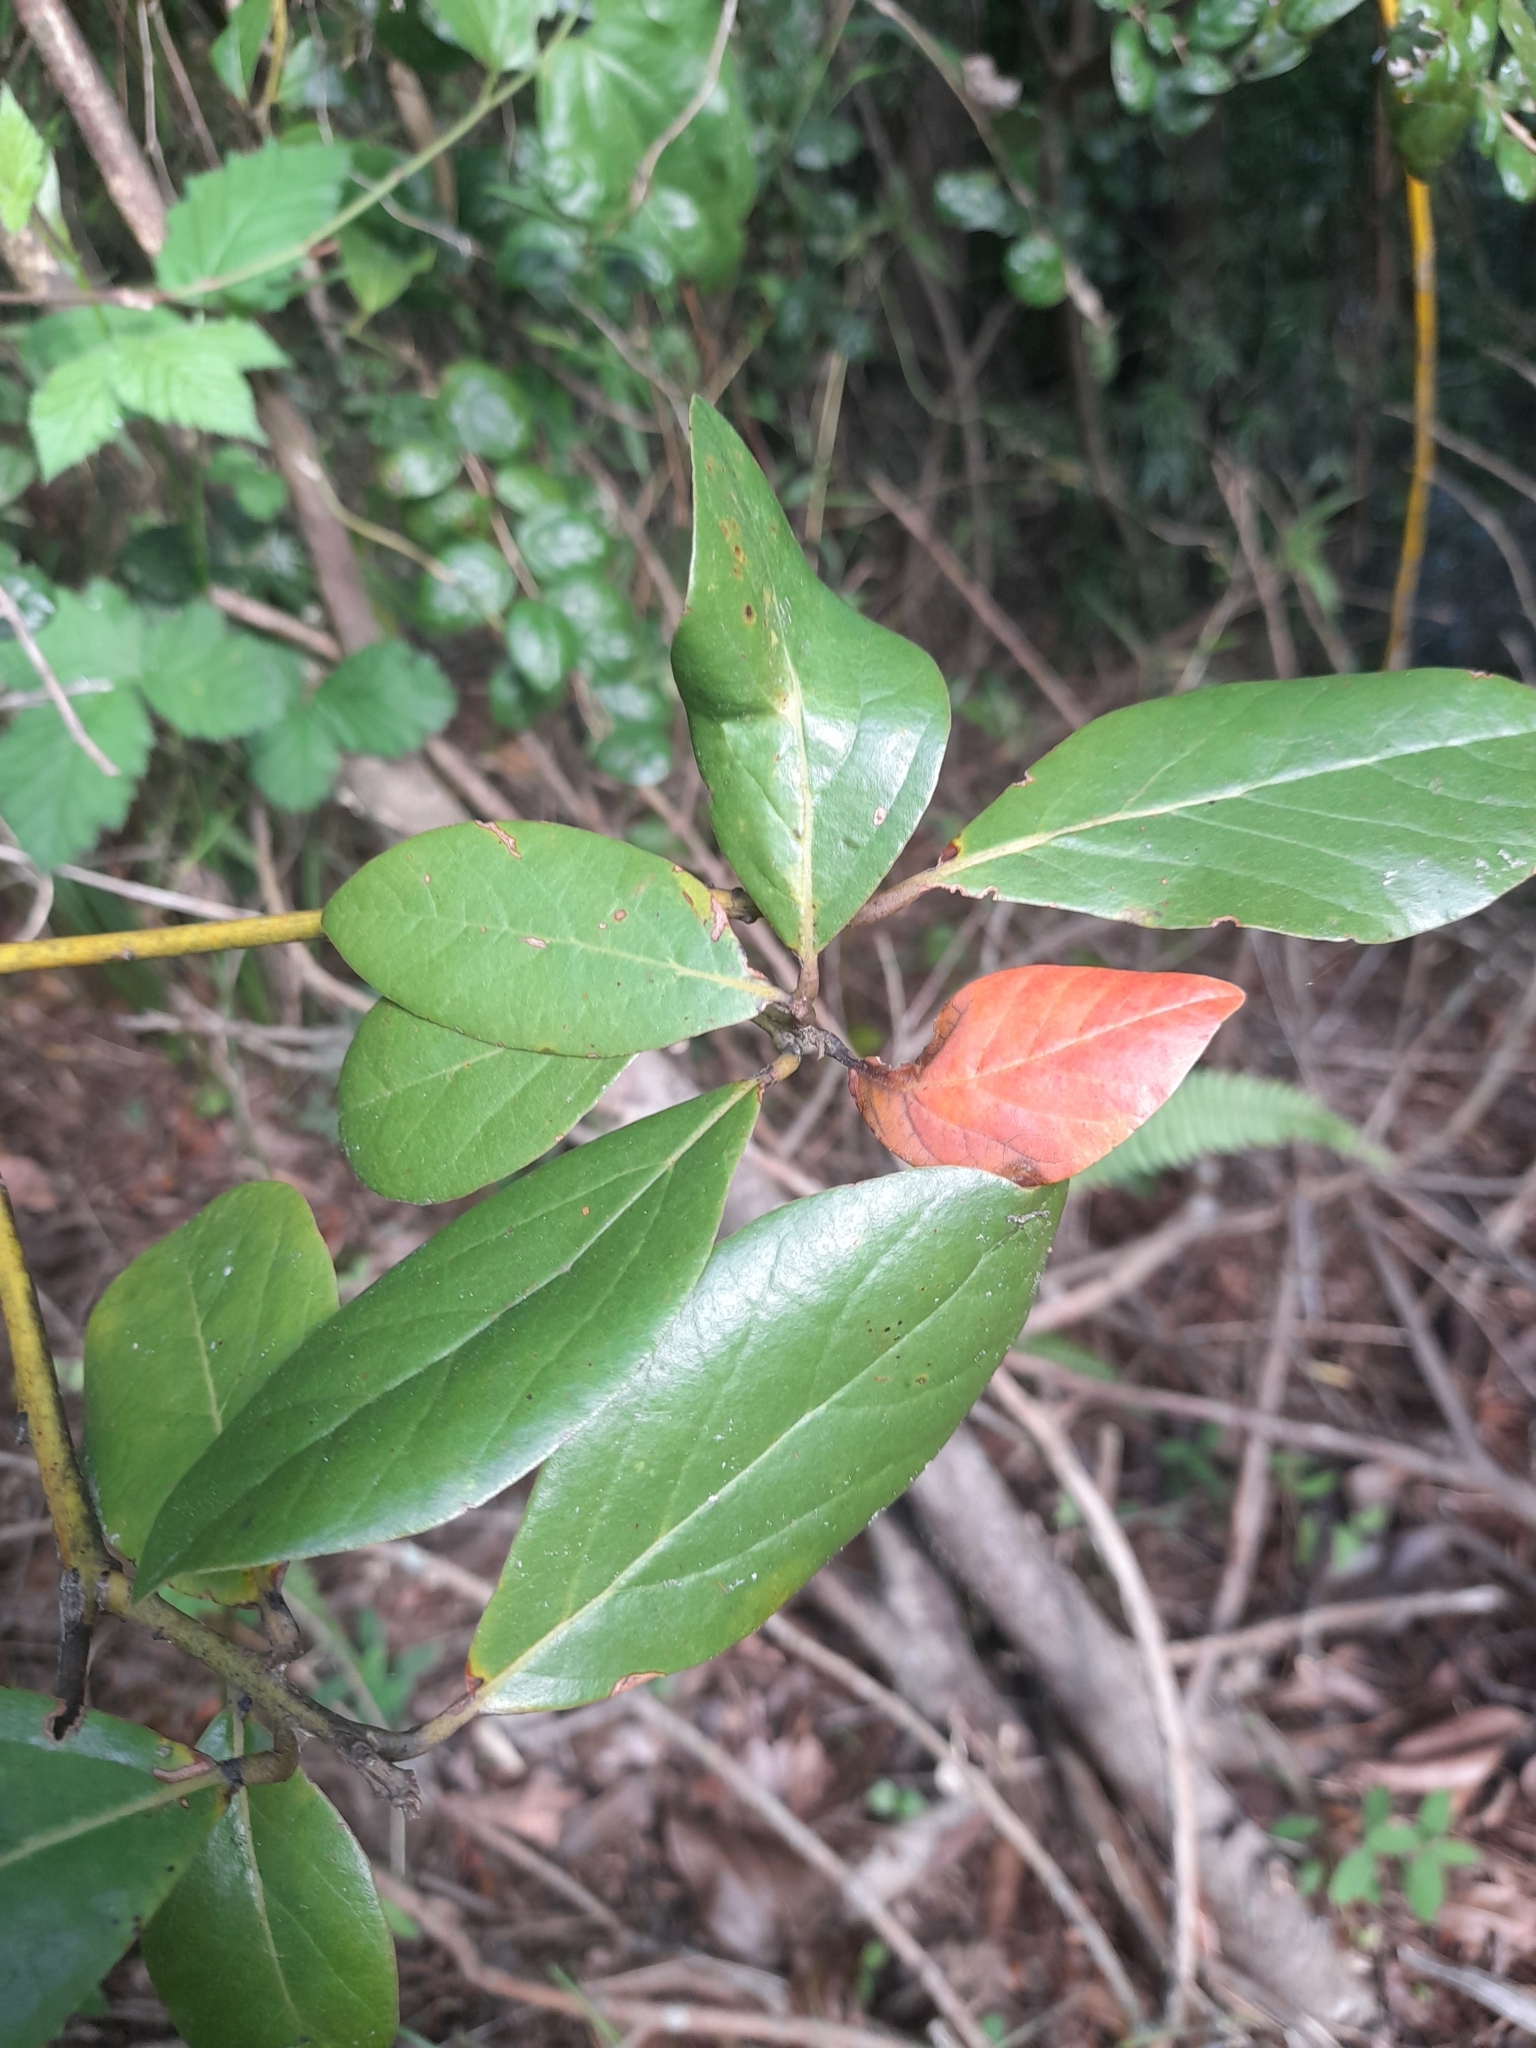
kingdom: Plantae
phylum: Tracheophyta
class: Magnoliopsida
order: Laurales
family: Lauraceae
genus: Persea
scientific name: Persea lingue
